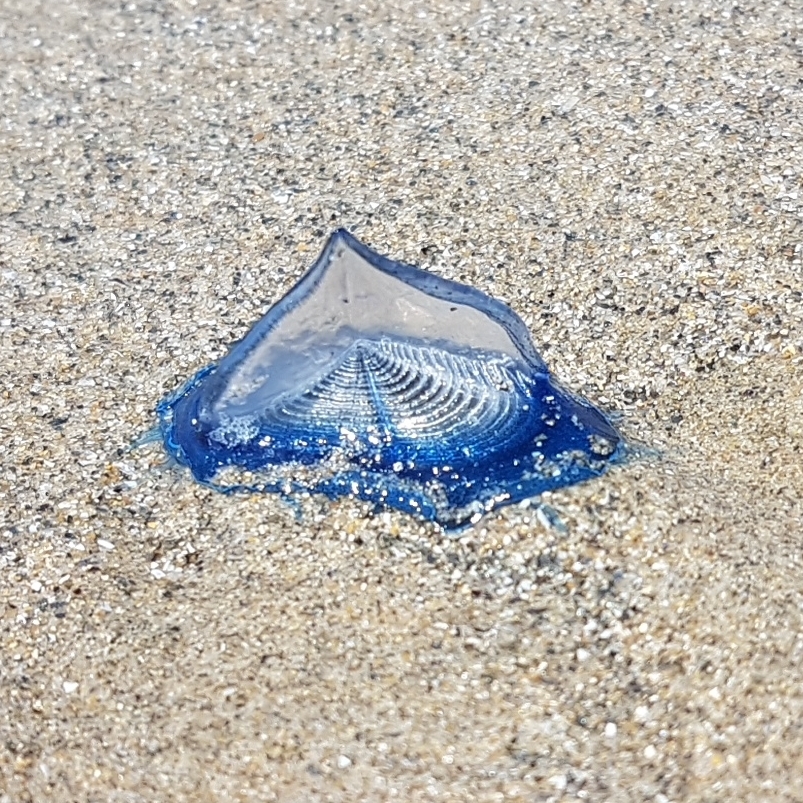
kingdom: Animalia
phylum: Cnidaria
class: Hydrozoa
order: Anthoathecata
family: Porpitidae
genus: Velella
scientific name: Velella velella
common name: By-the-wind-sailor
